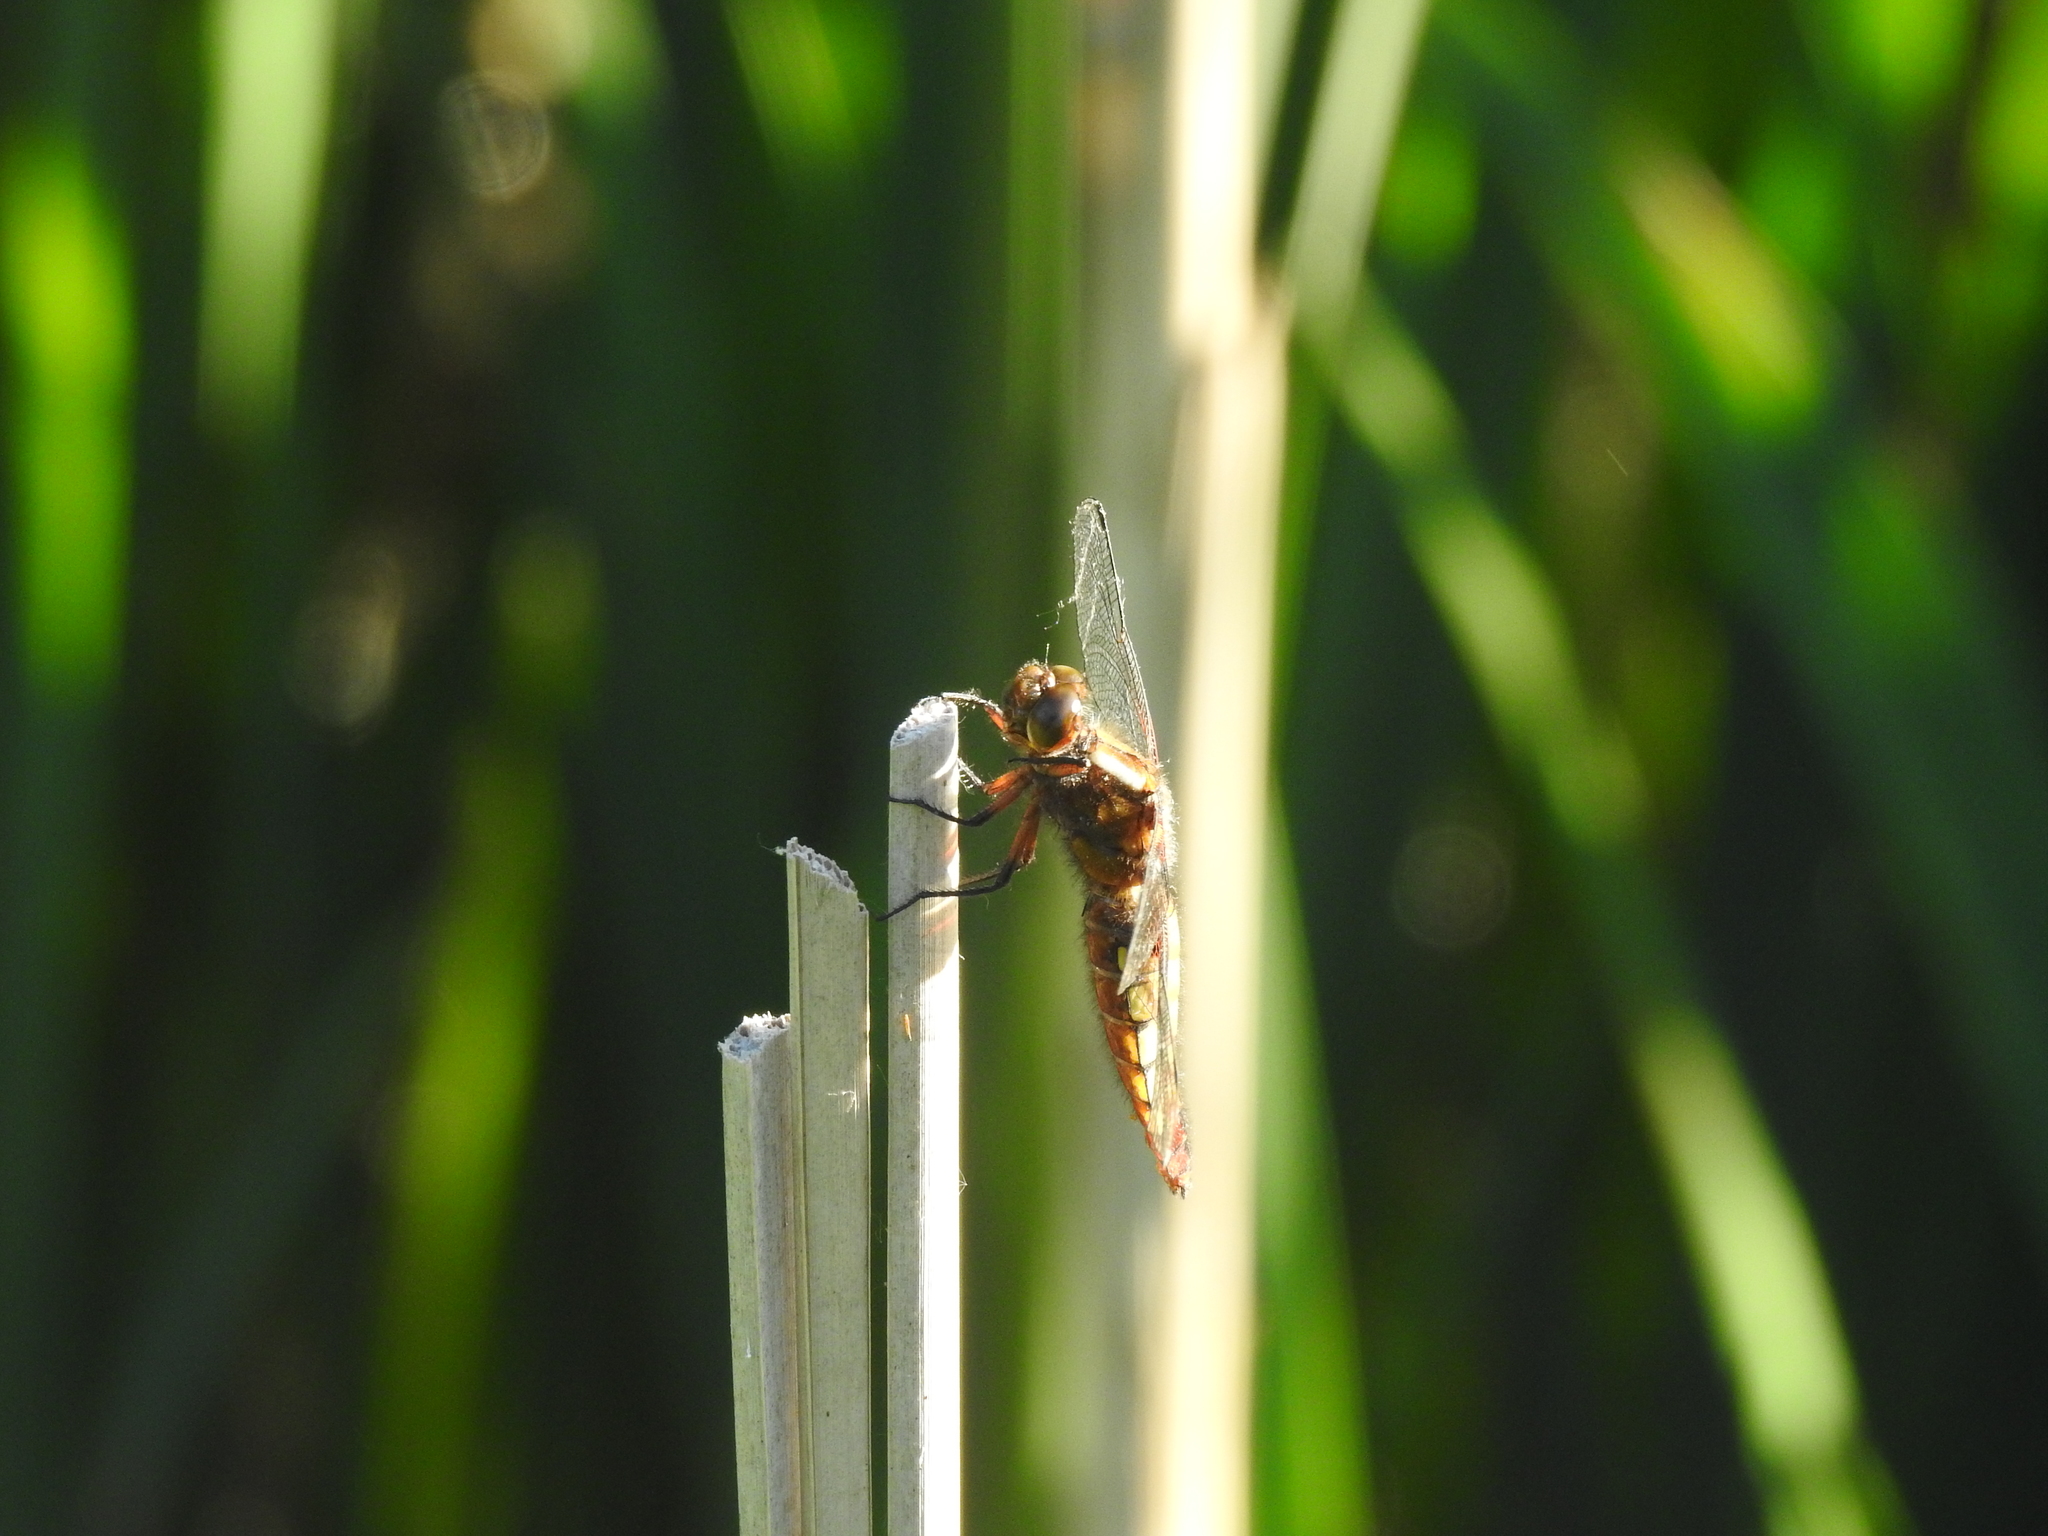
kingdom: Animalia
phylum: Arthropoda
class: Insecta
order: Odonata
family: Libellulidae
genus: Libellula
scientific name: Libellula depressa
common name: Broad-bodied chaser
